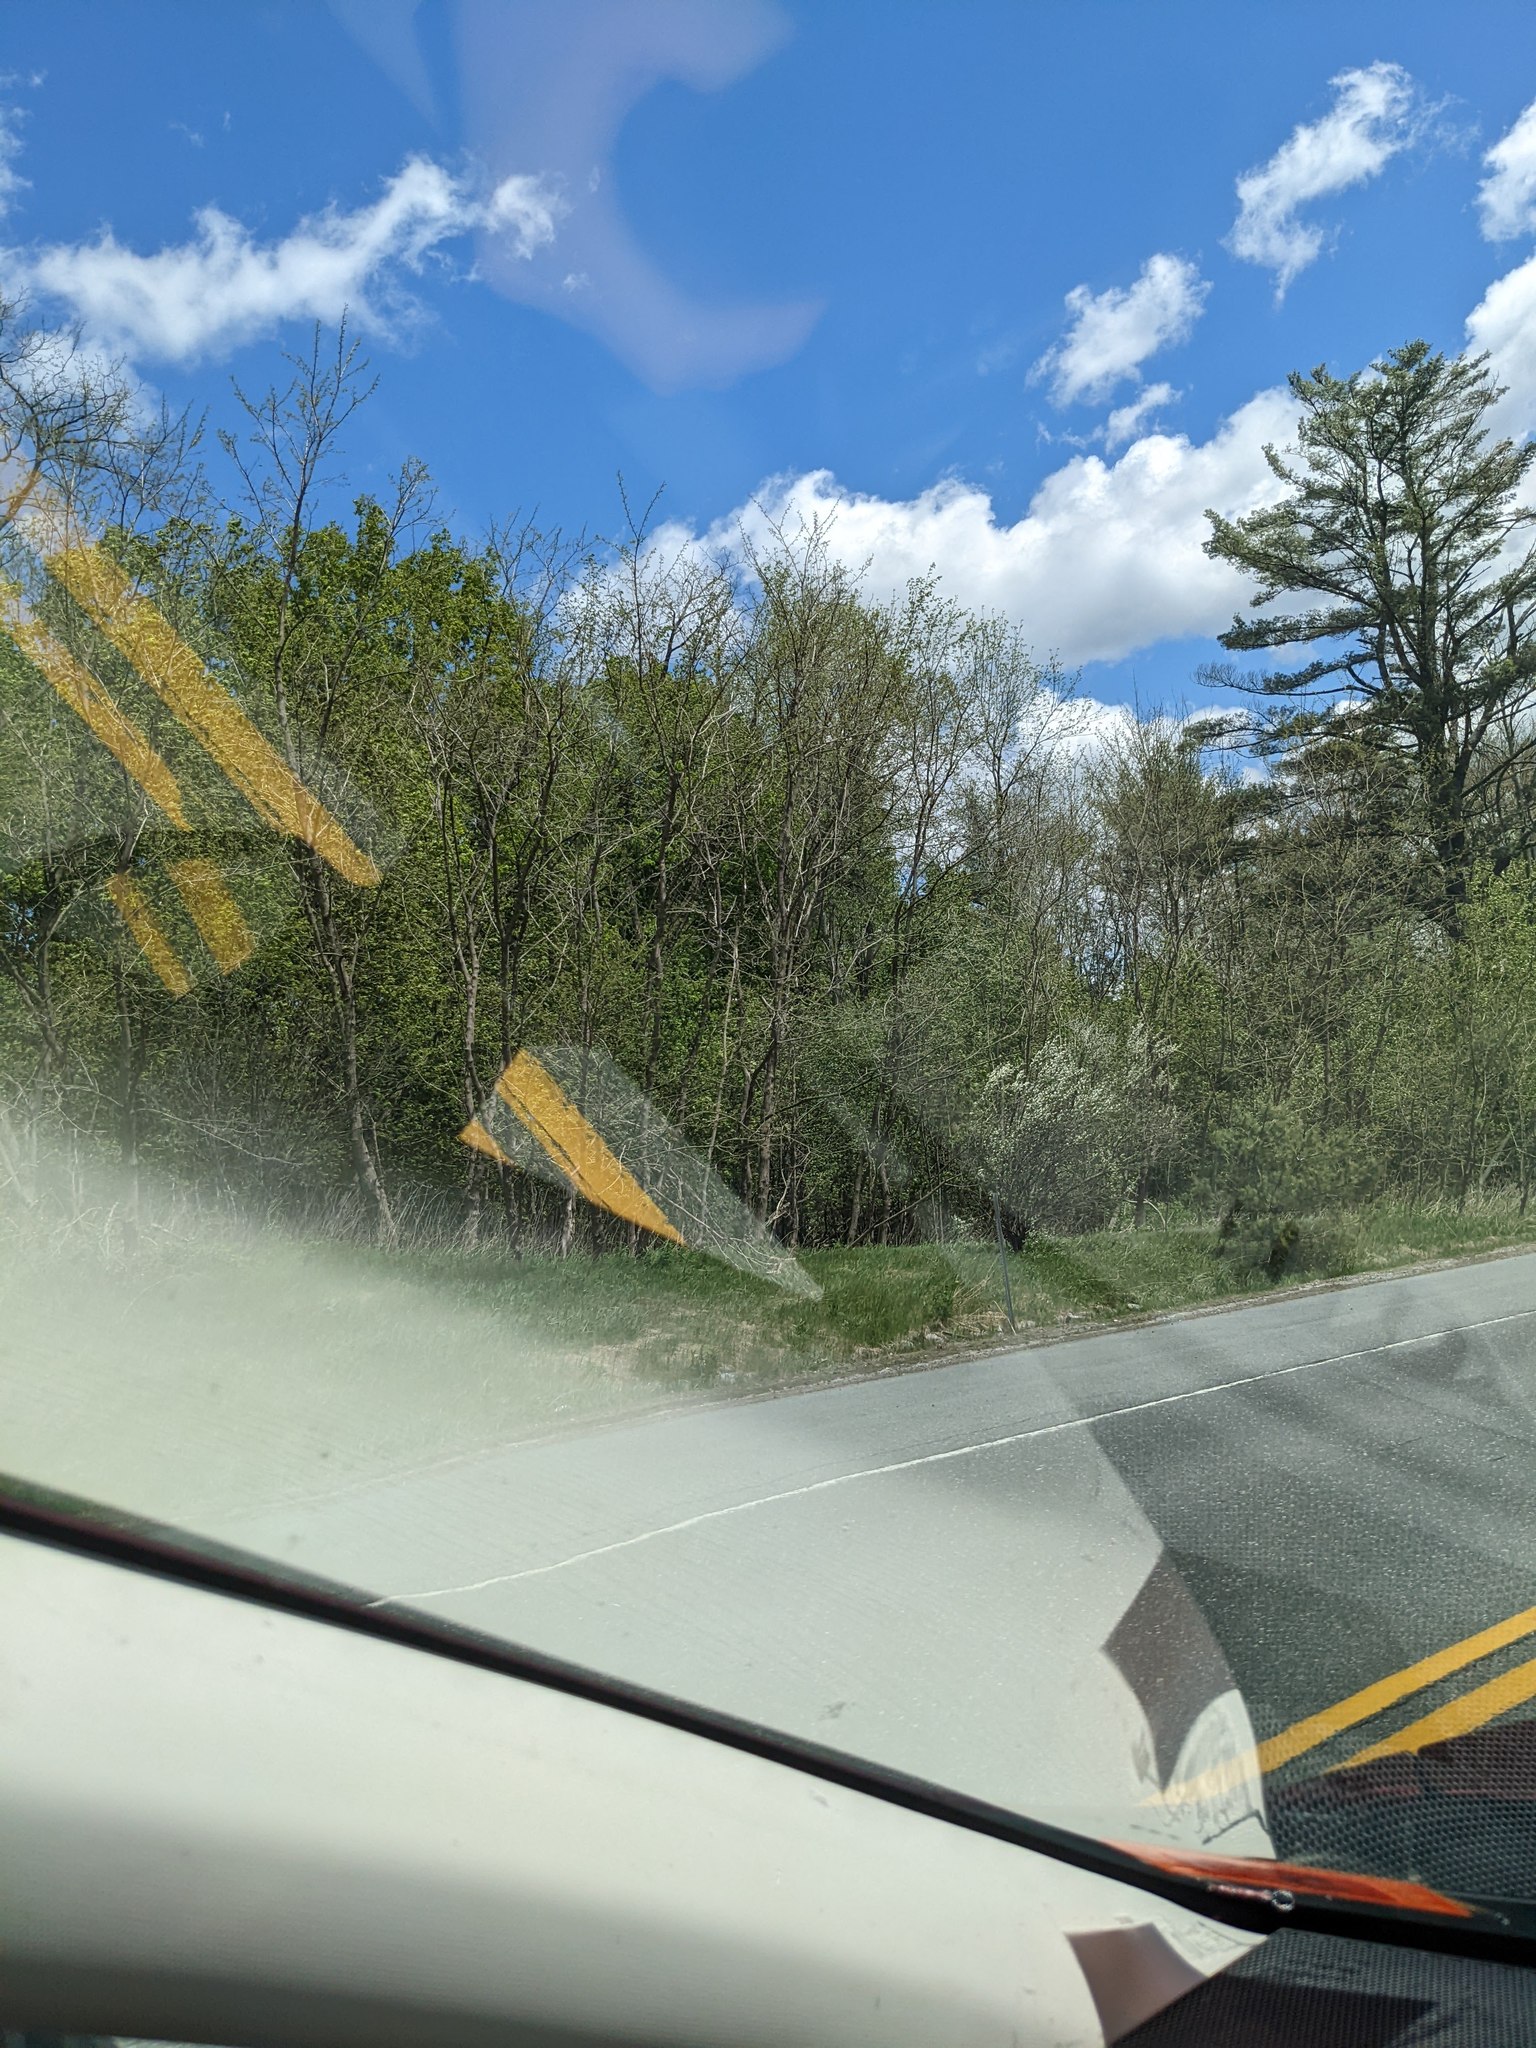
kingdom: Plantae
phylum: Tracheophyta
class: Pinopsida
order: Pinales
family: Pinaceae
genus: Pinus
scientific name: Pinus strobus
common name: Weymouth pine
